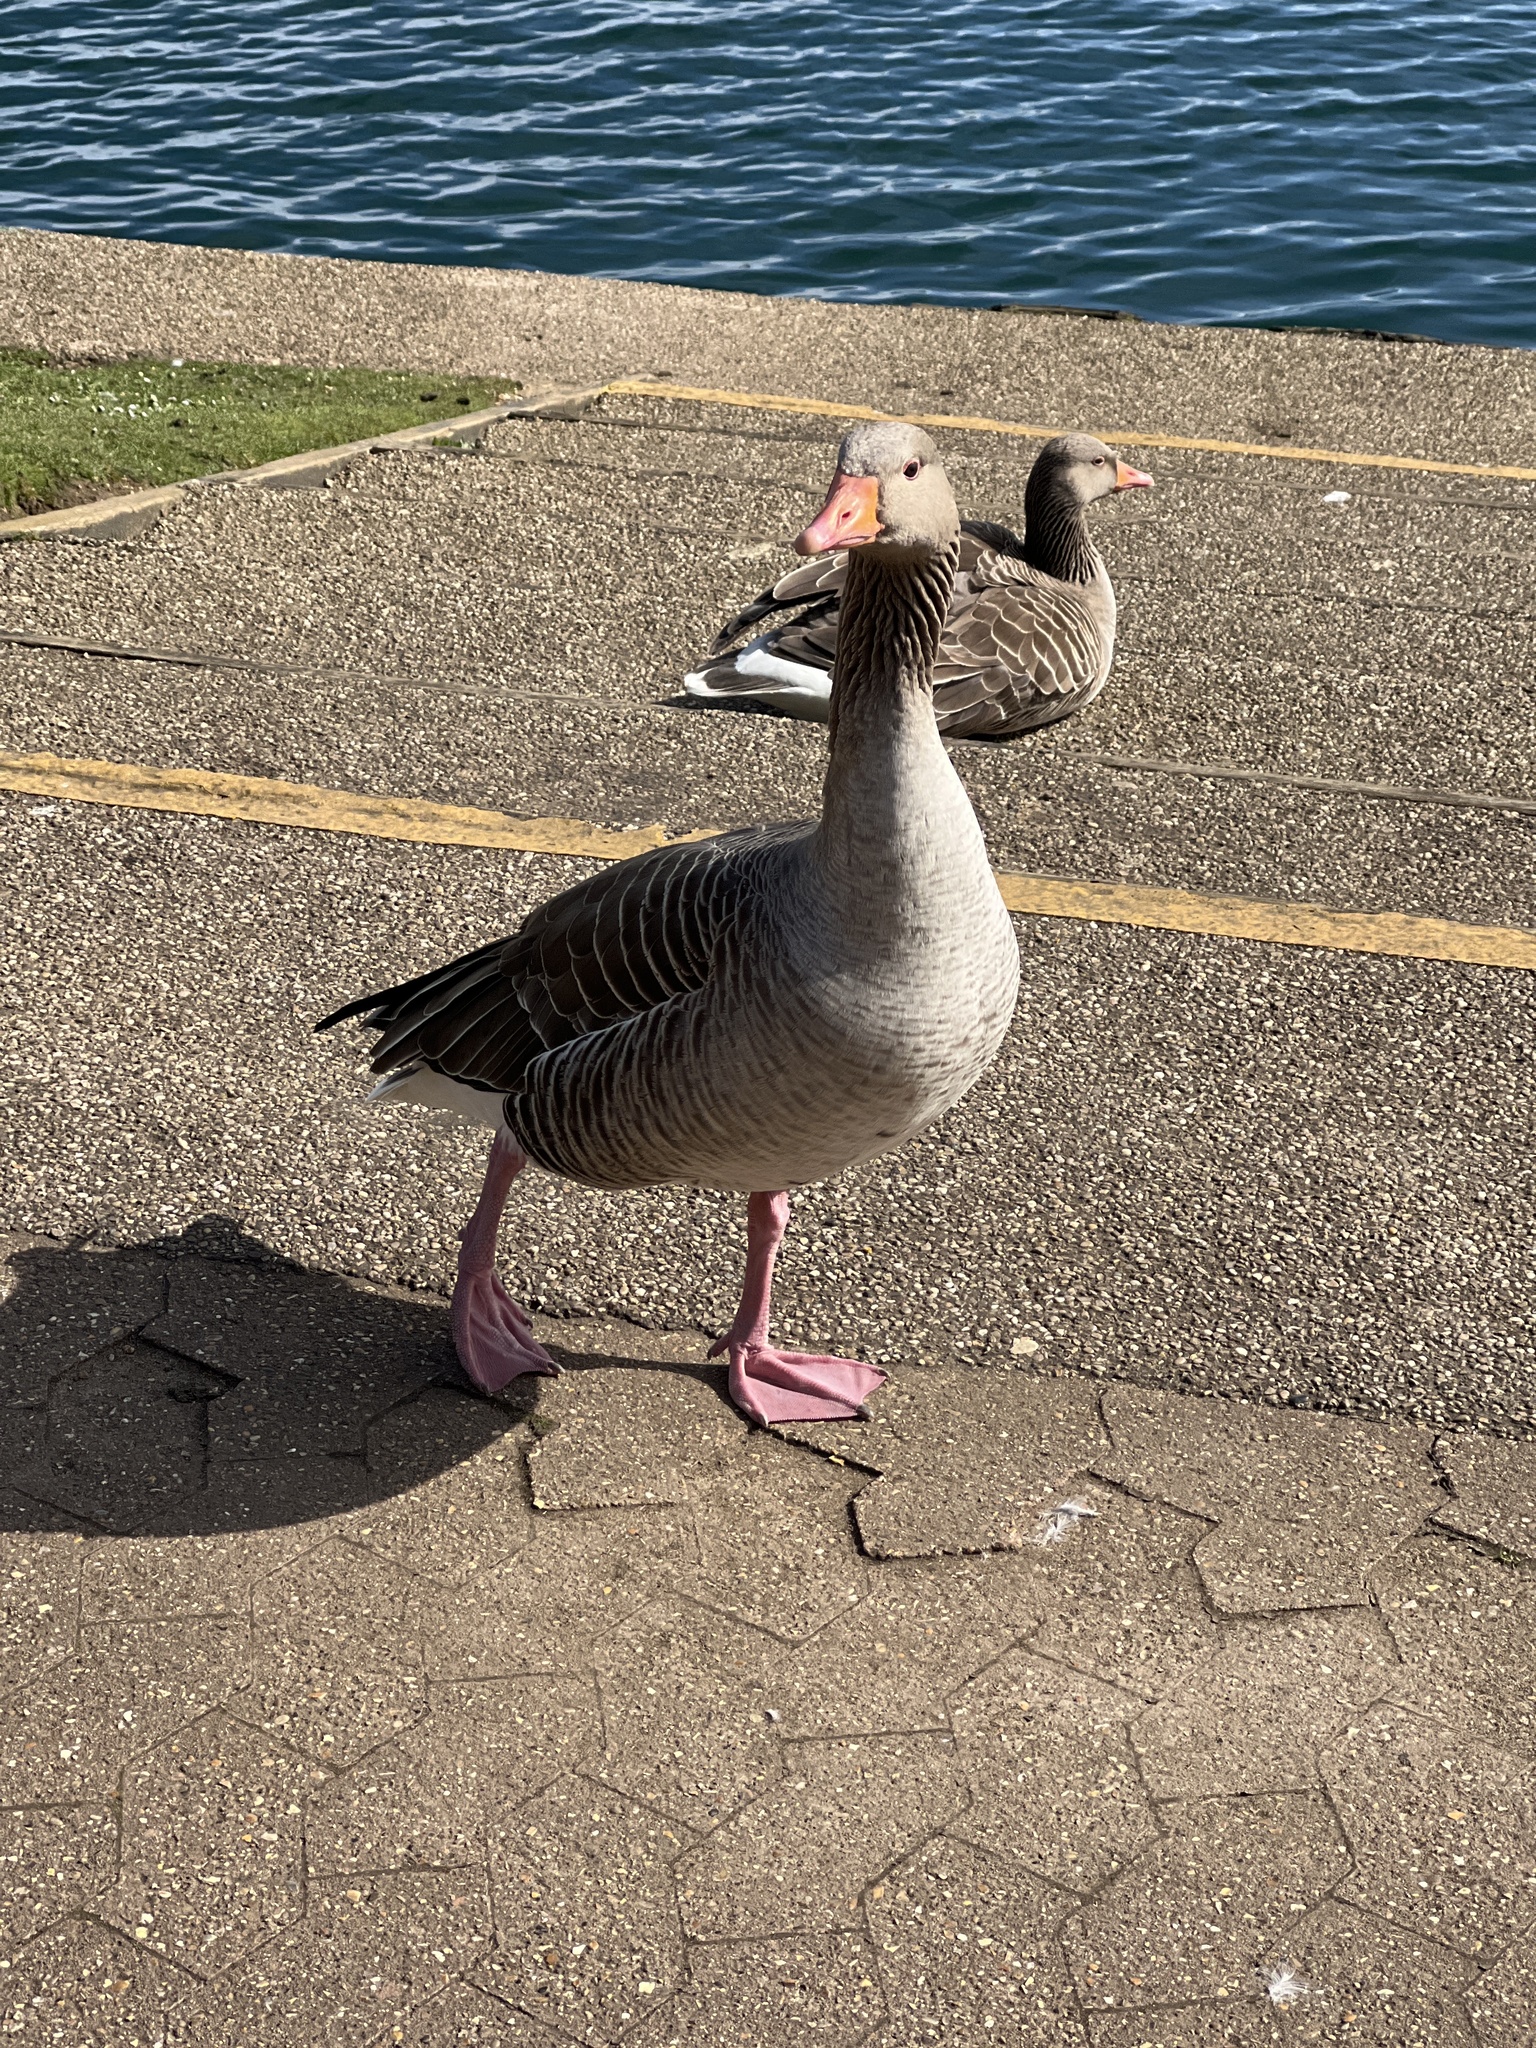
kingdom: Animalia
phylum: Chordata
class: Aves
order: Anseriformes
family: Anatidae
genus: Anser
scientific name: Anser anser
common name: Greylag goose
